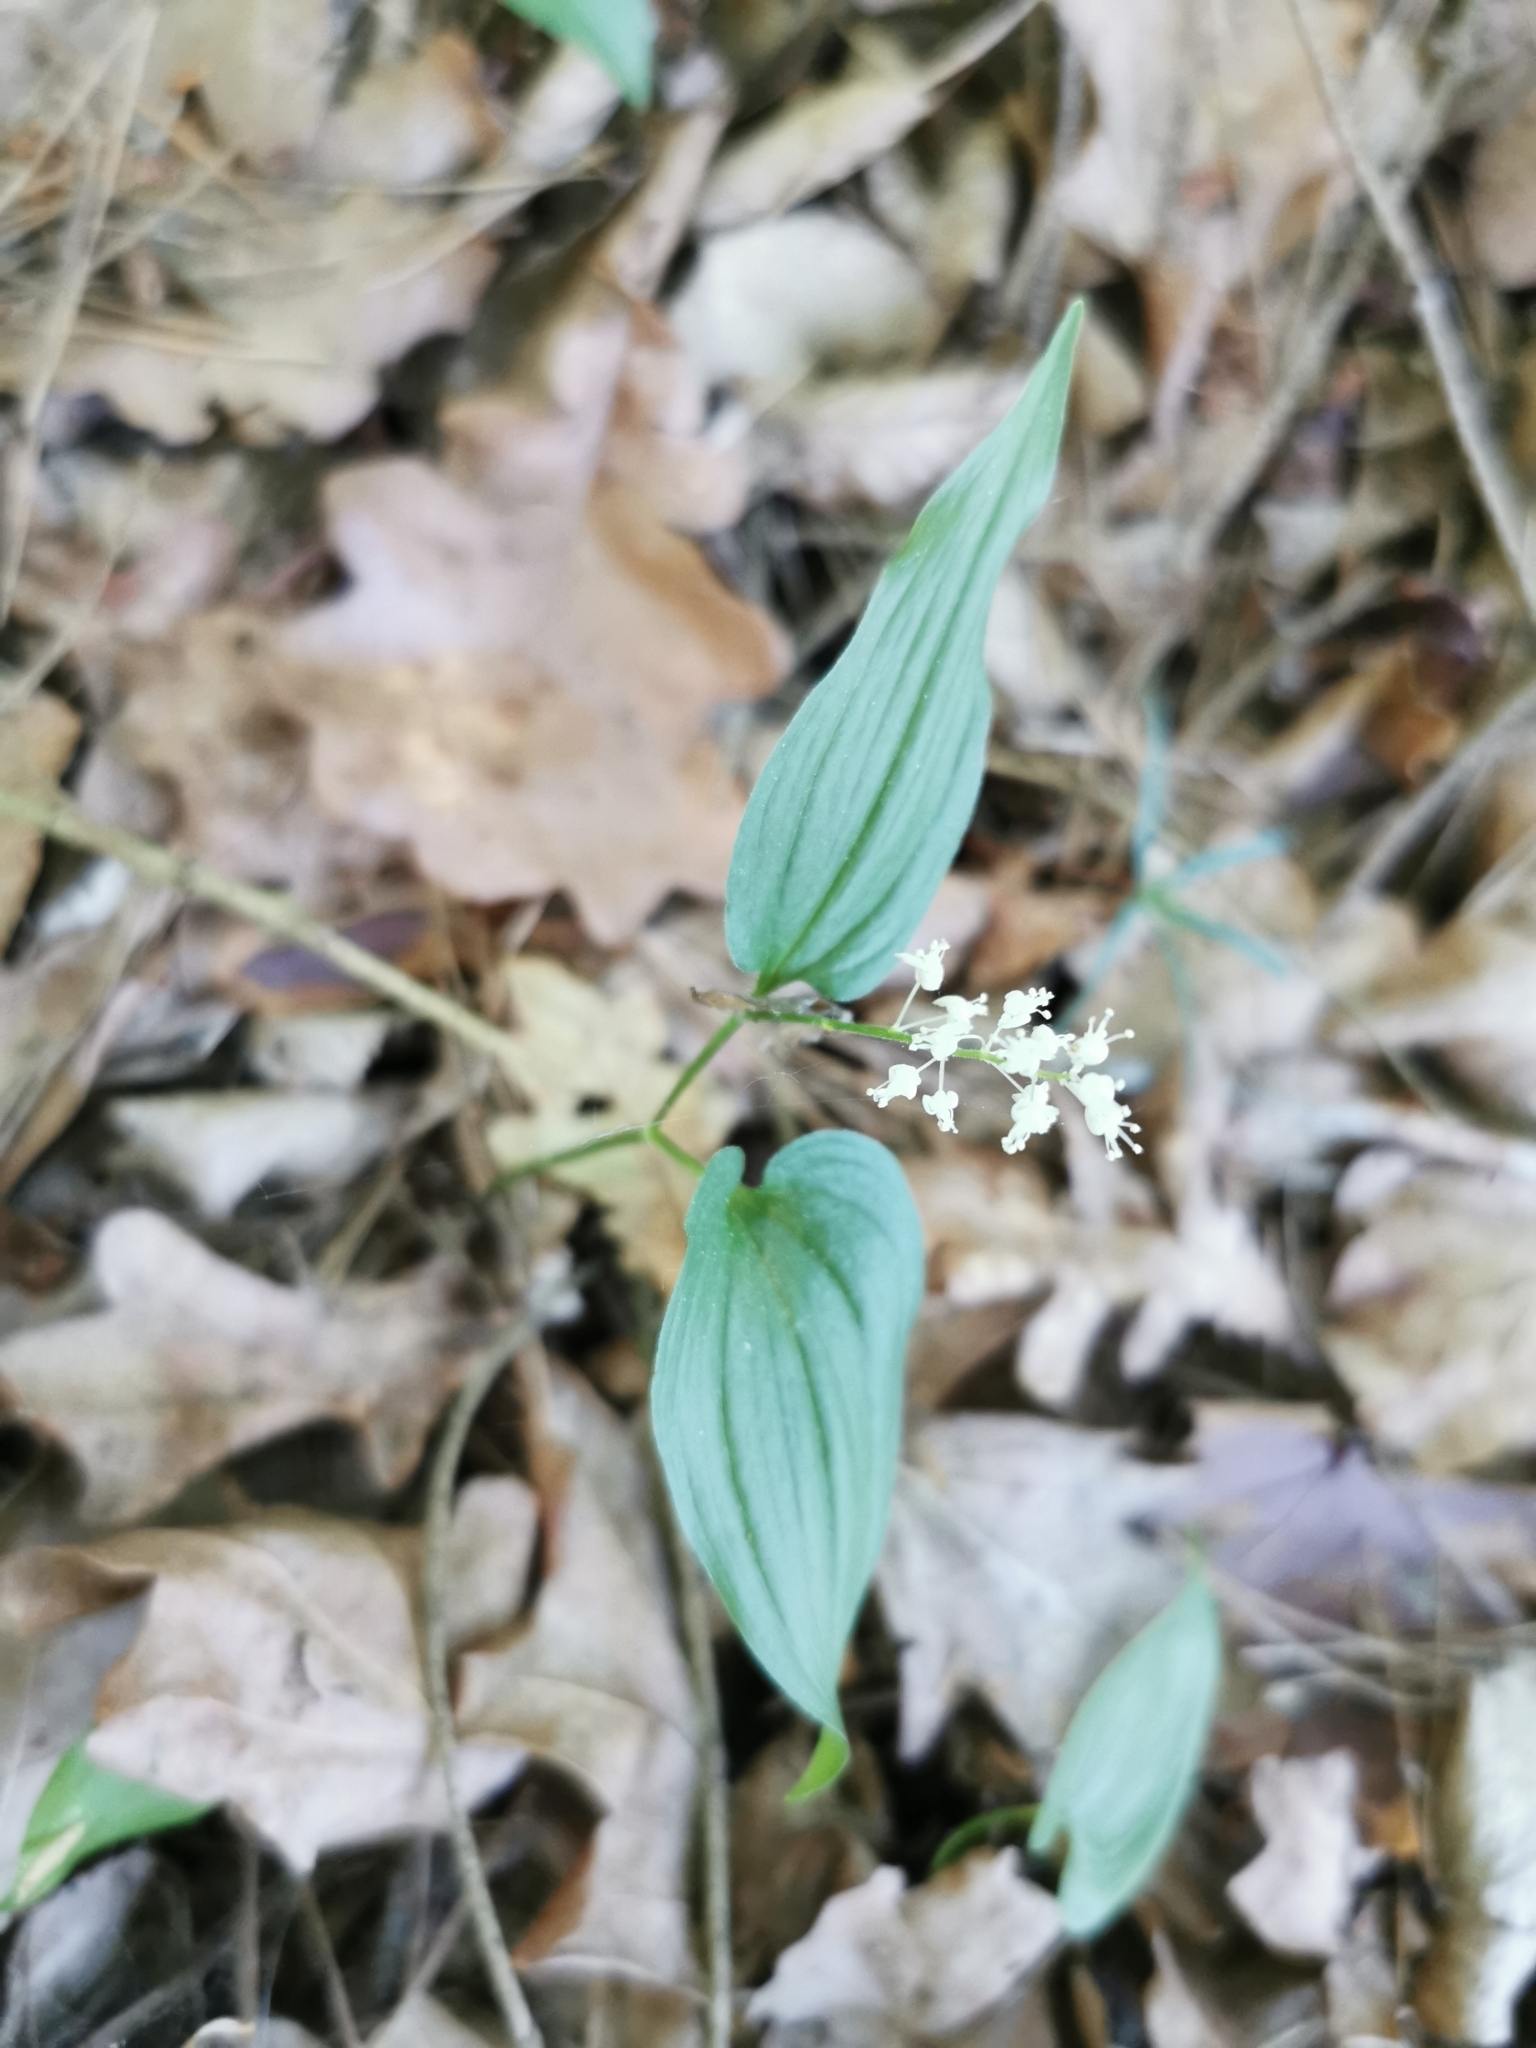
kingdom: Plantae
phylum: Tracheophyta
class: Liliopsida
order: Asparagales
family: Asparagaceae
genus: Maianthemum
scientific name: Maianthemum bifolium
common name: May lily
